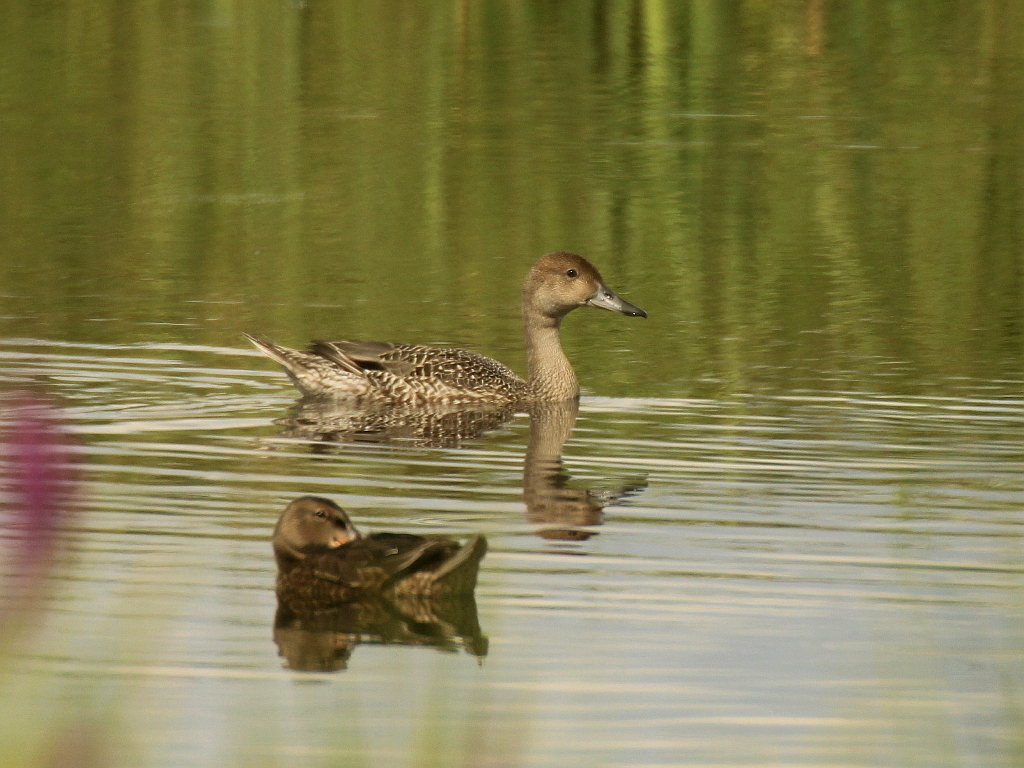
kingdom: Animalia
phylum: Chordata
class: Aves
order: Anseriformes
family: Anatidae
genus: Anas
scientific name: Anas acuta
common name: Northern pintail
